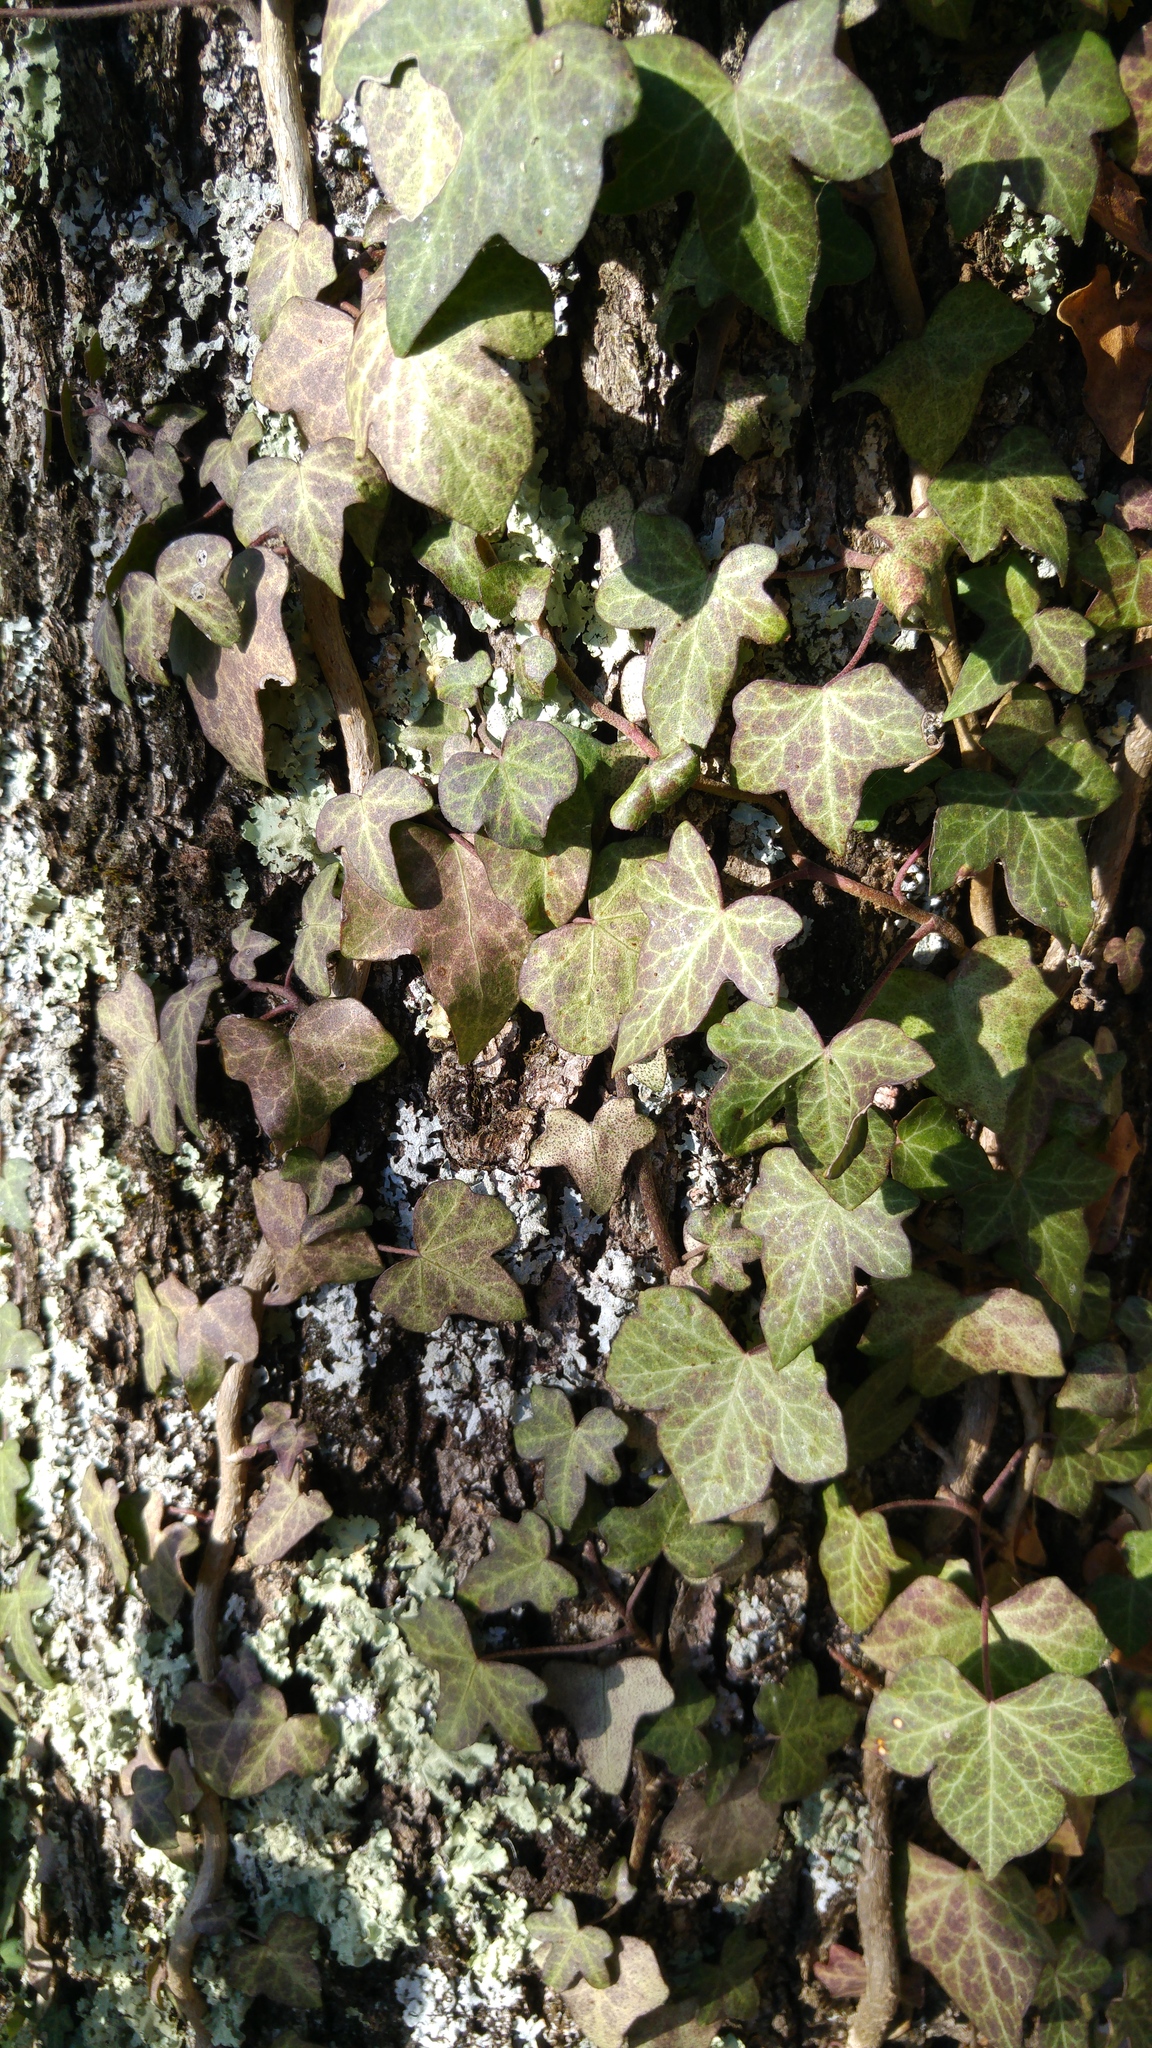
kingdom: Plantae
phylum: Tracheophyta
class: Magnoliopsida
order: Apiales
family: Araliaceae
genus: Hedera
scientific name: Hedera helix
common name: Ivy
